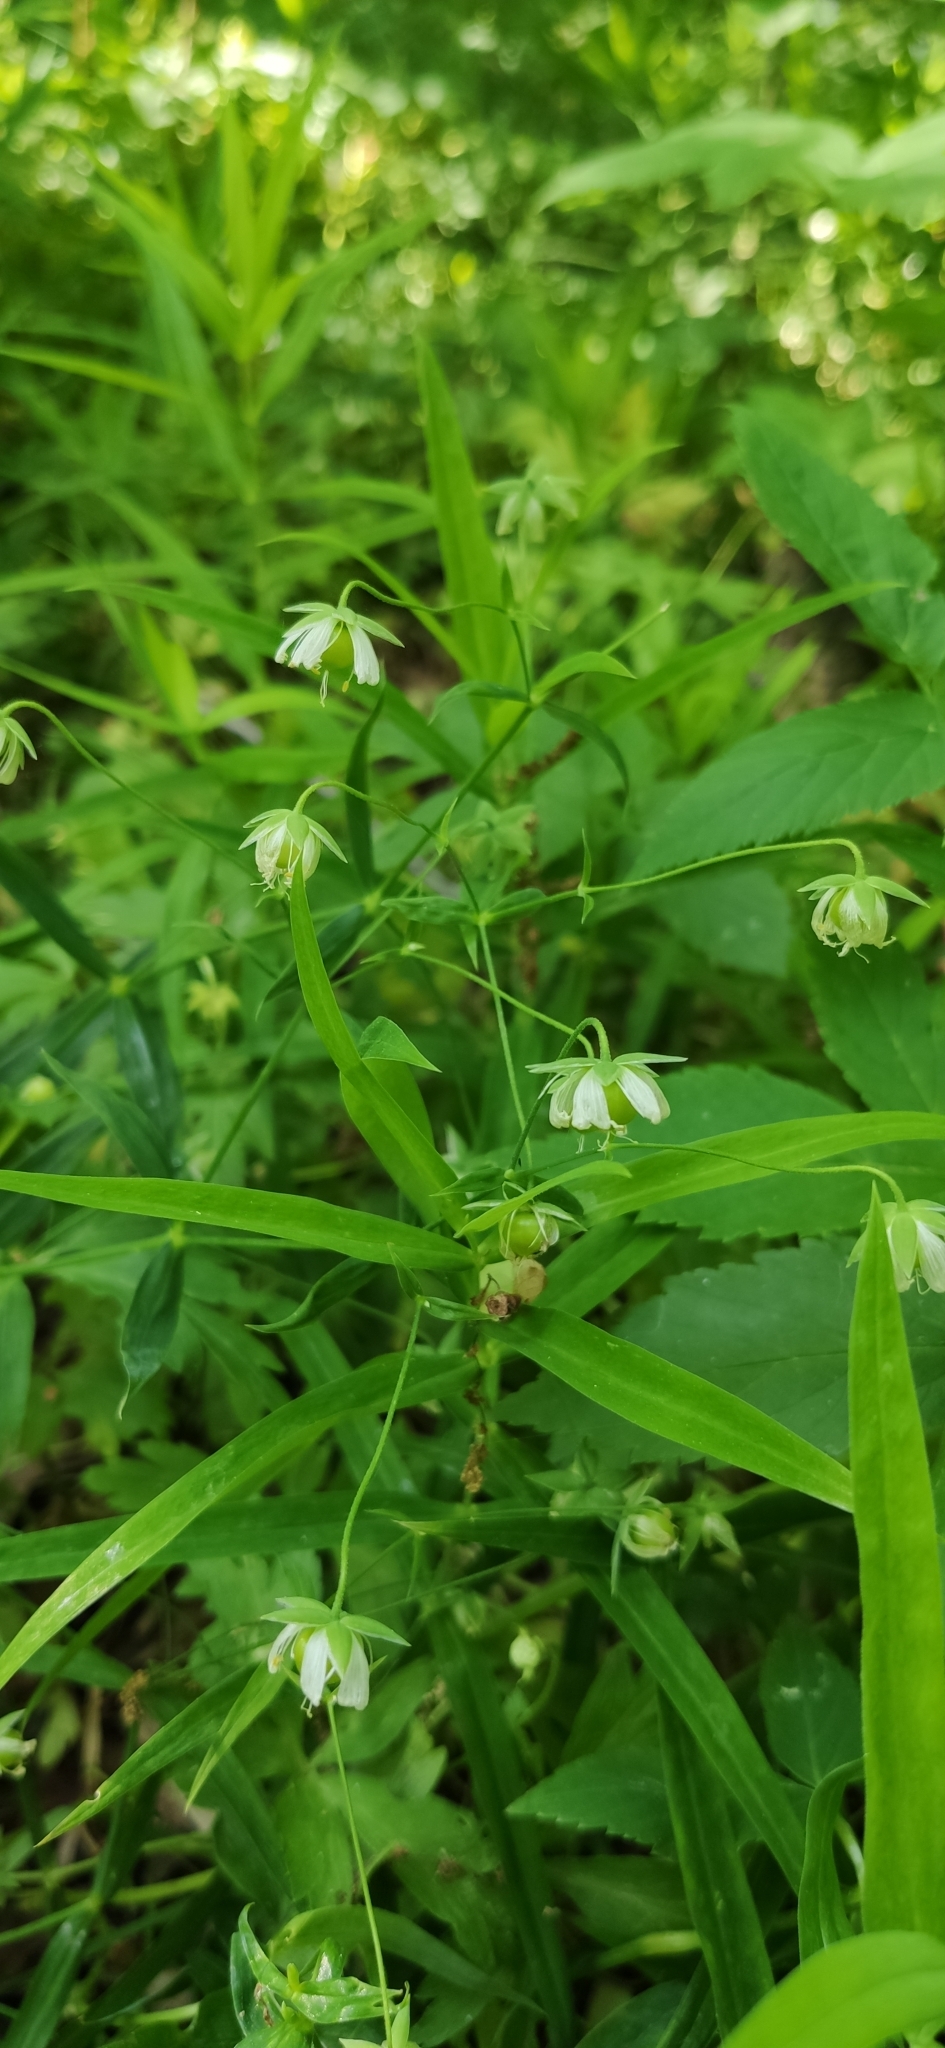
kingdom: Plantae
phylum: Tracheophyta
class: Magnoliopsida
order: Caryophyllales
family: Caryophyllaceae
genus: Rabelera
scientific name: Rabelera holostea
